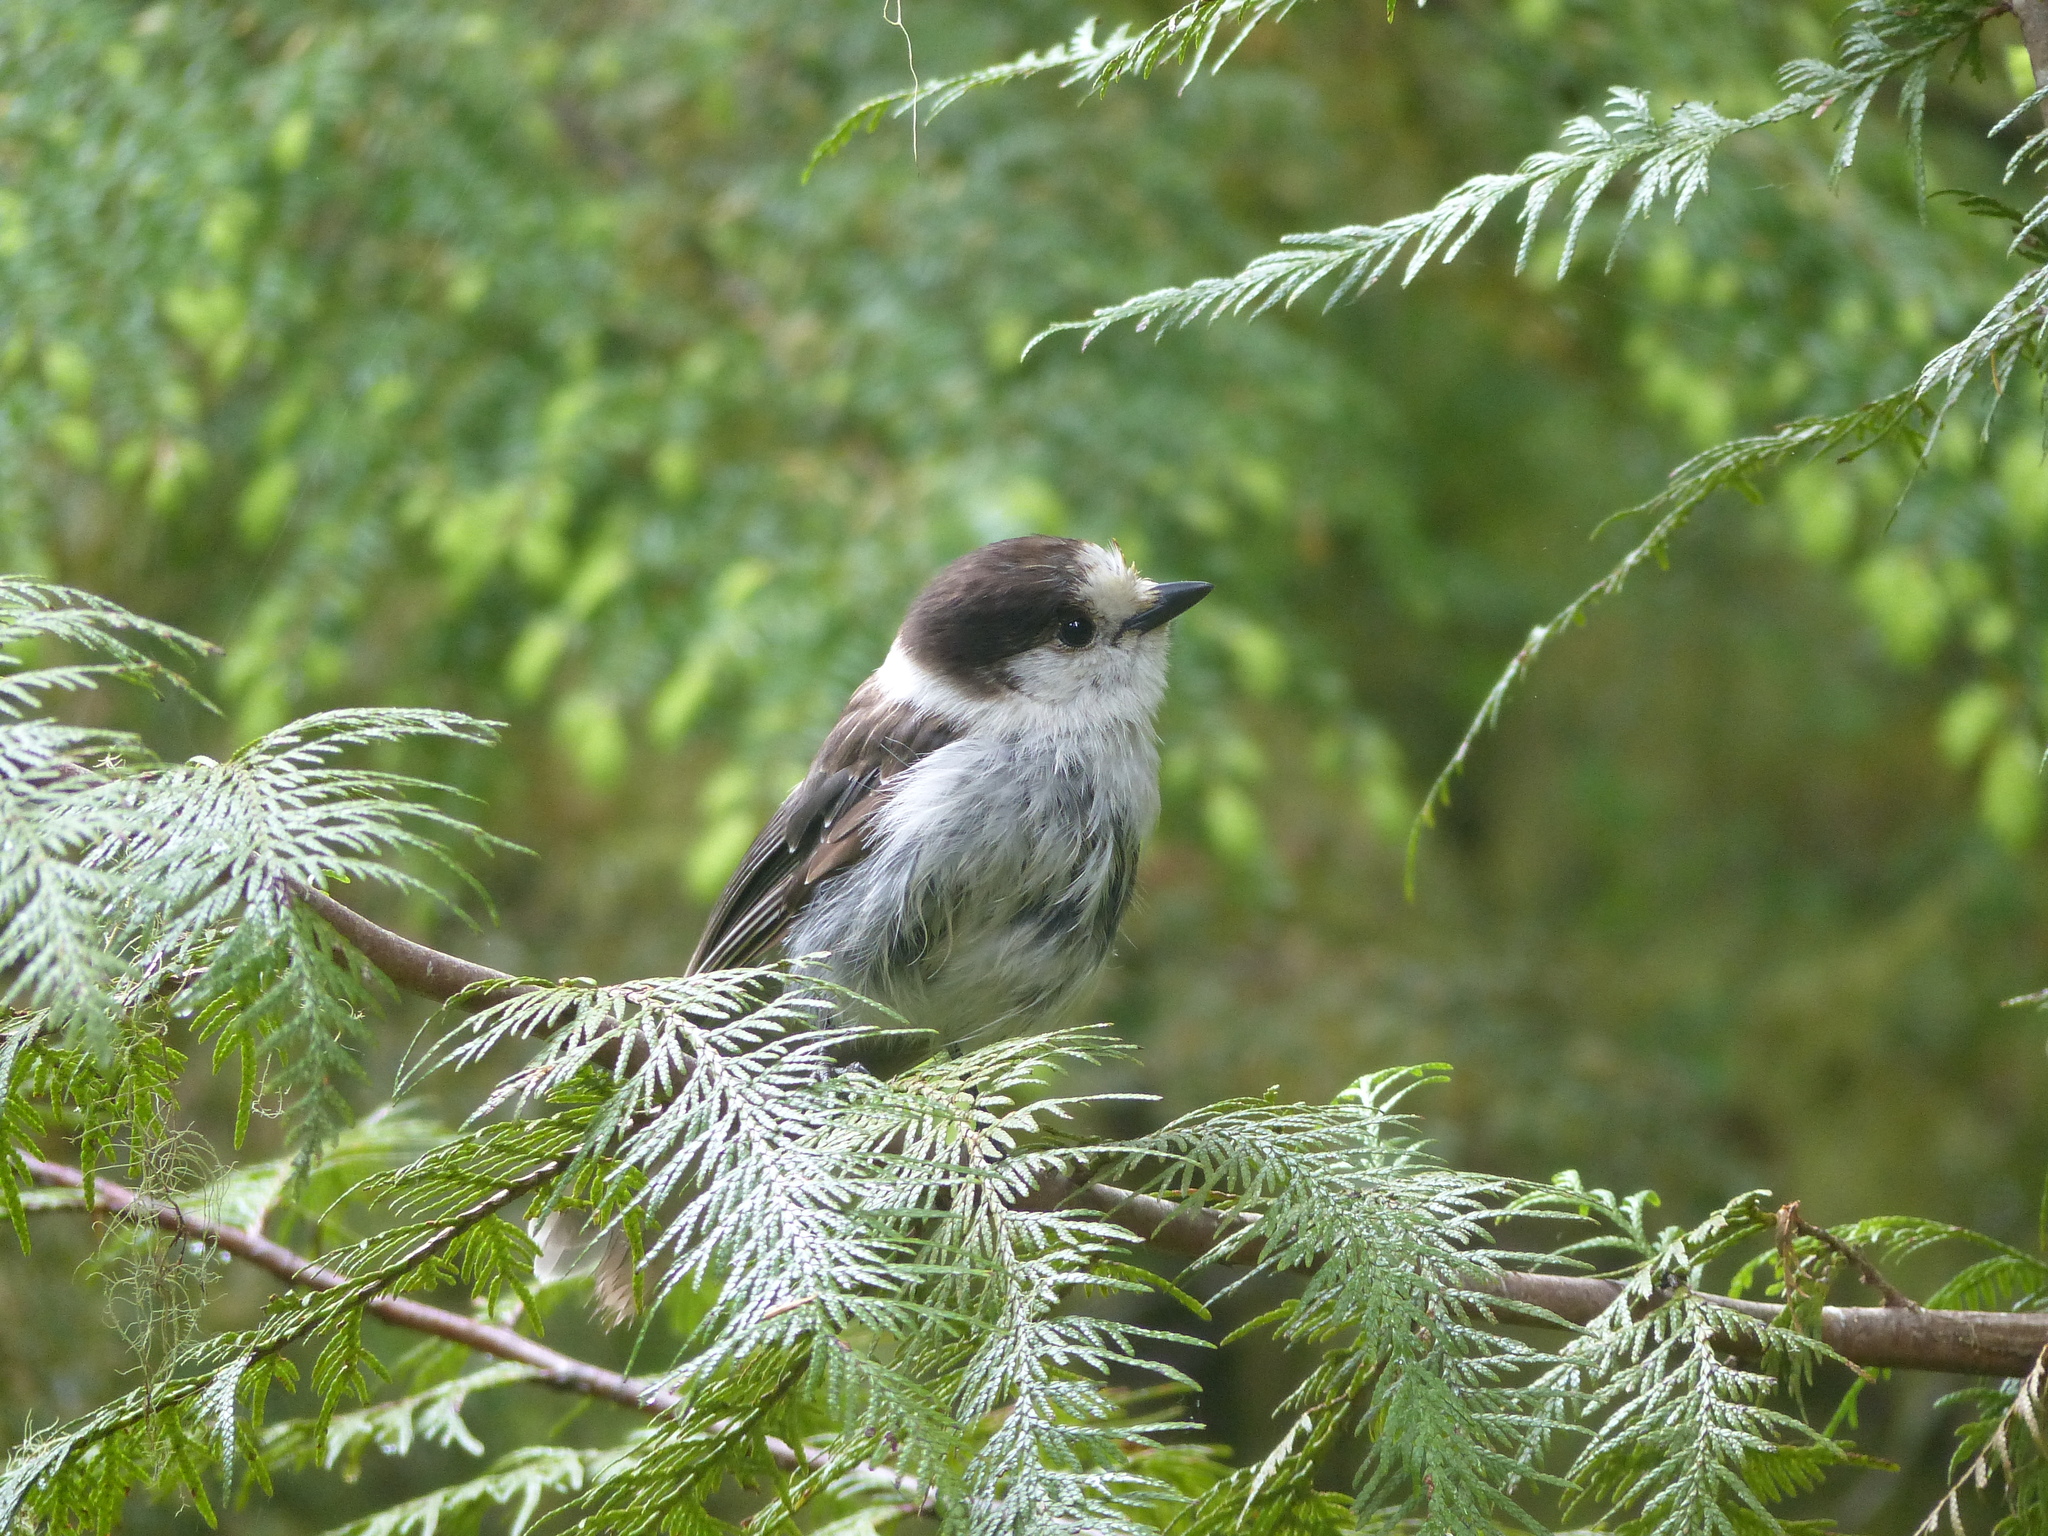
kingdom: Animalia
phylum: Chordata
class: Aves
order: Passeriformes
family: Corvidae
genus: Perisoreus
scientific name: Perisoreus canadensis
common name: Gray jay
